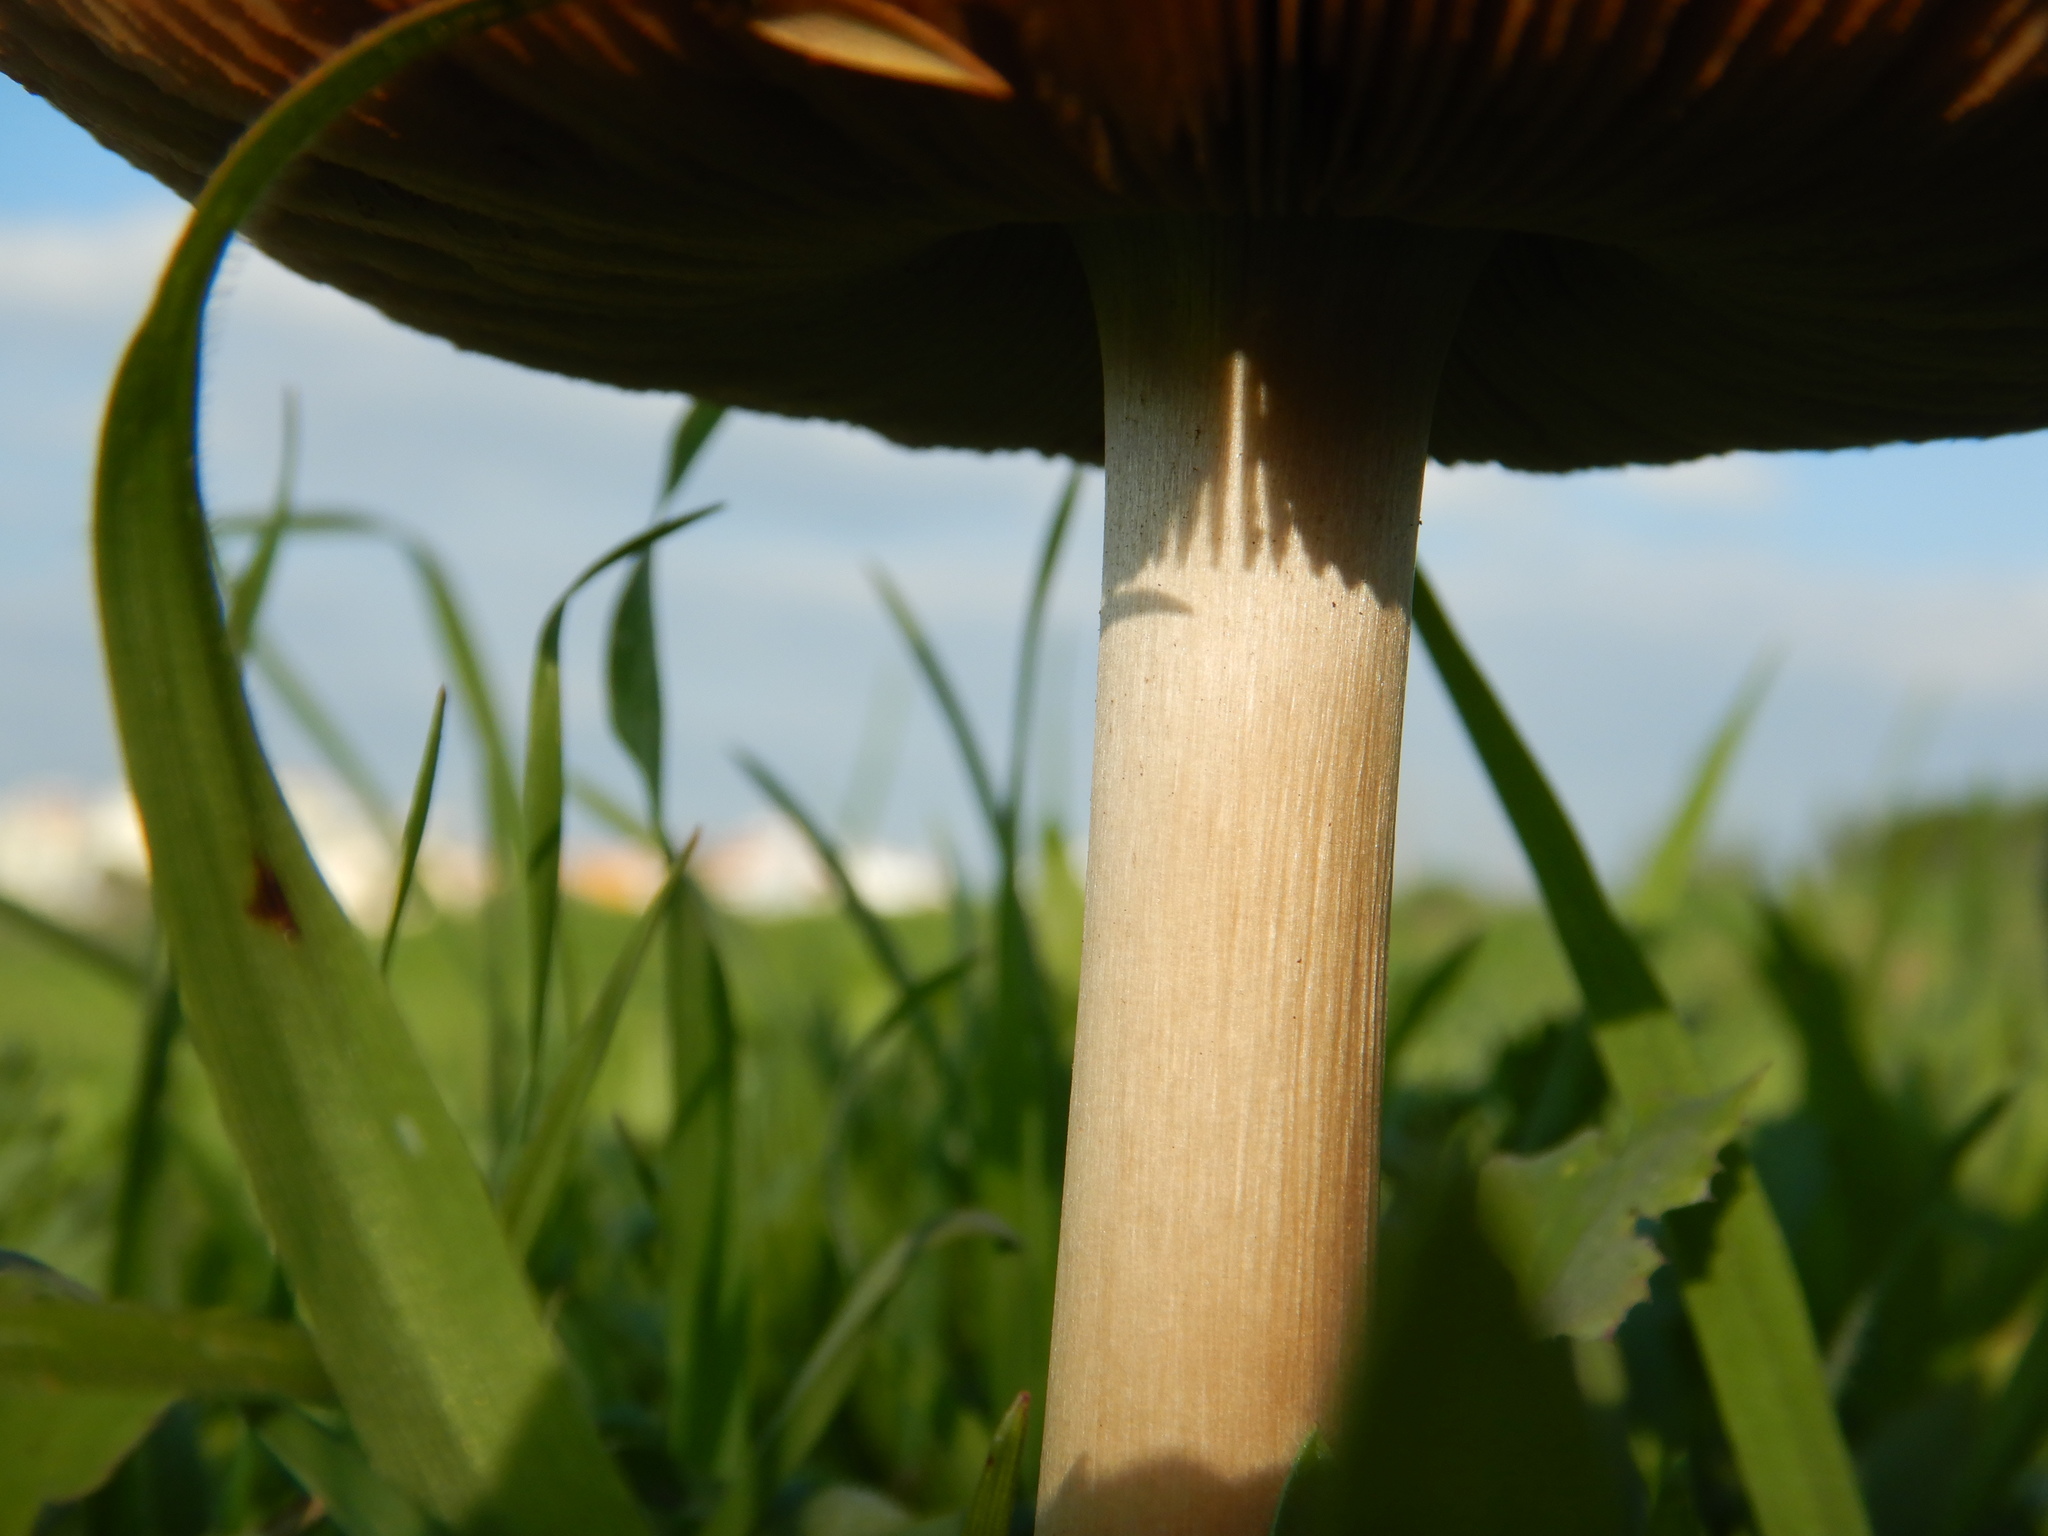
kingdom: Fungi
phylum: Basidiomycota
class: Agaricomycetes
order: Agaricales
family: Pluteaceae
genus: Volvopluteus
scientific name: Volvopluteus gloiocephalus
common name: Stubble rosegill
